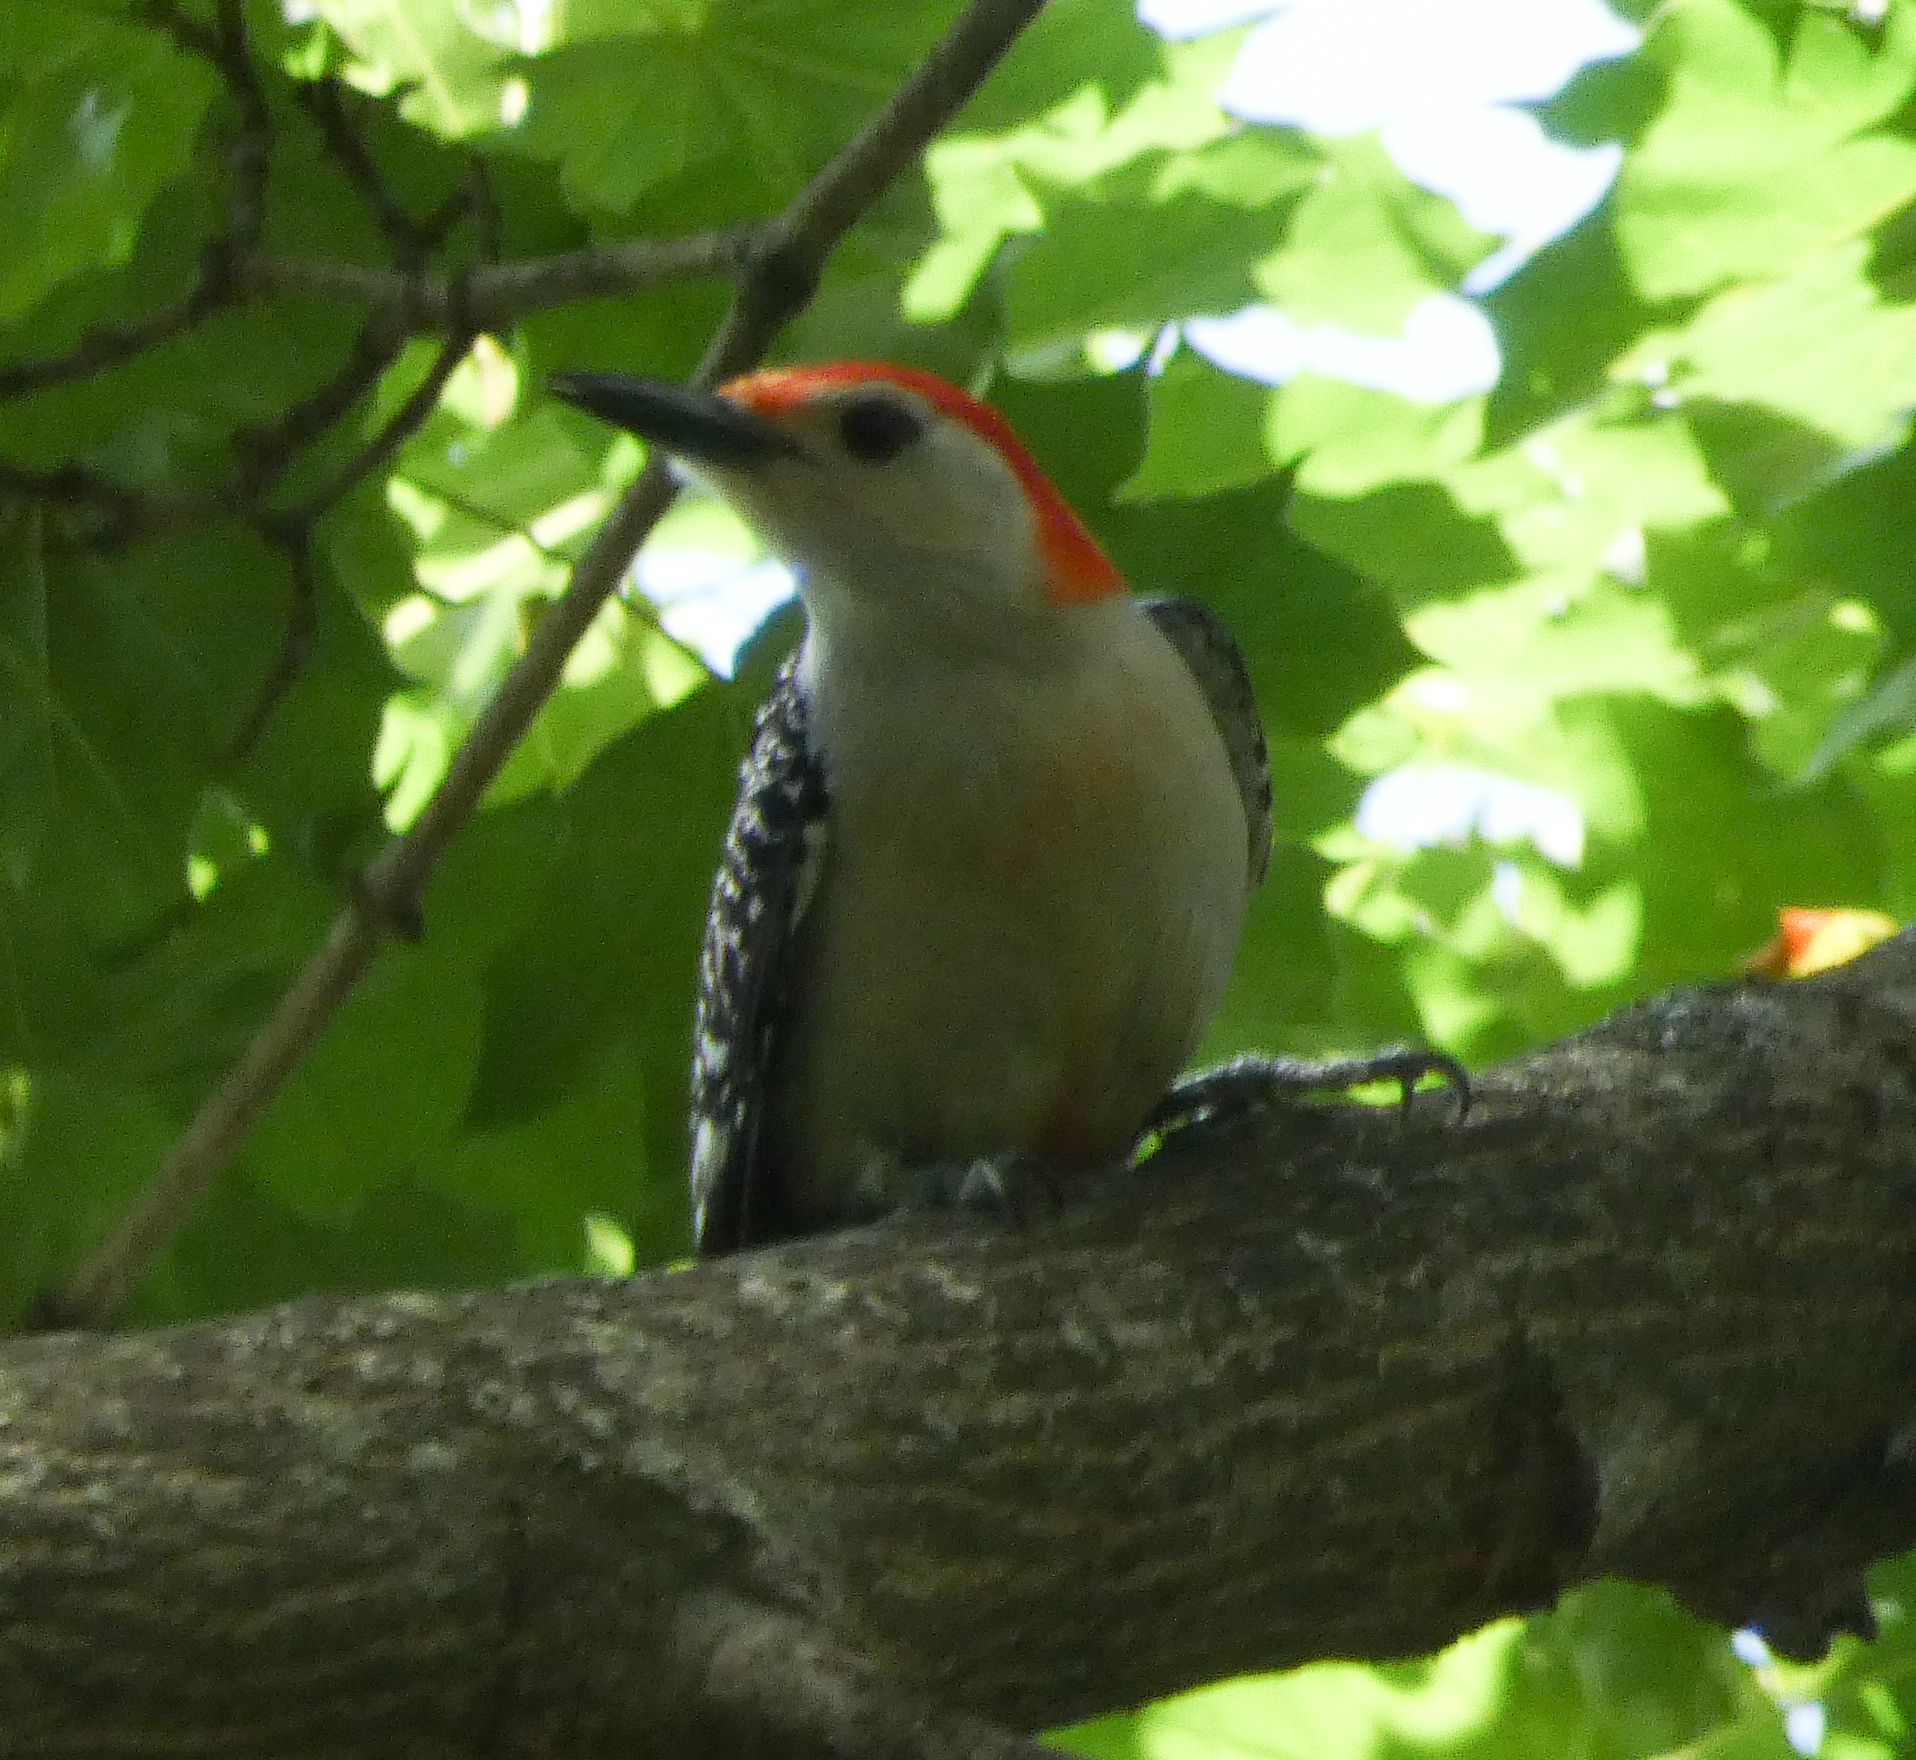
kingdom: Animalia
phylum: Chordata
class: Aves
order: Piciformes
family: Picidae
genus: Melanerpes
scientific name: Melanerpes carolinus
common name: Red-bellied woodpecker
